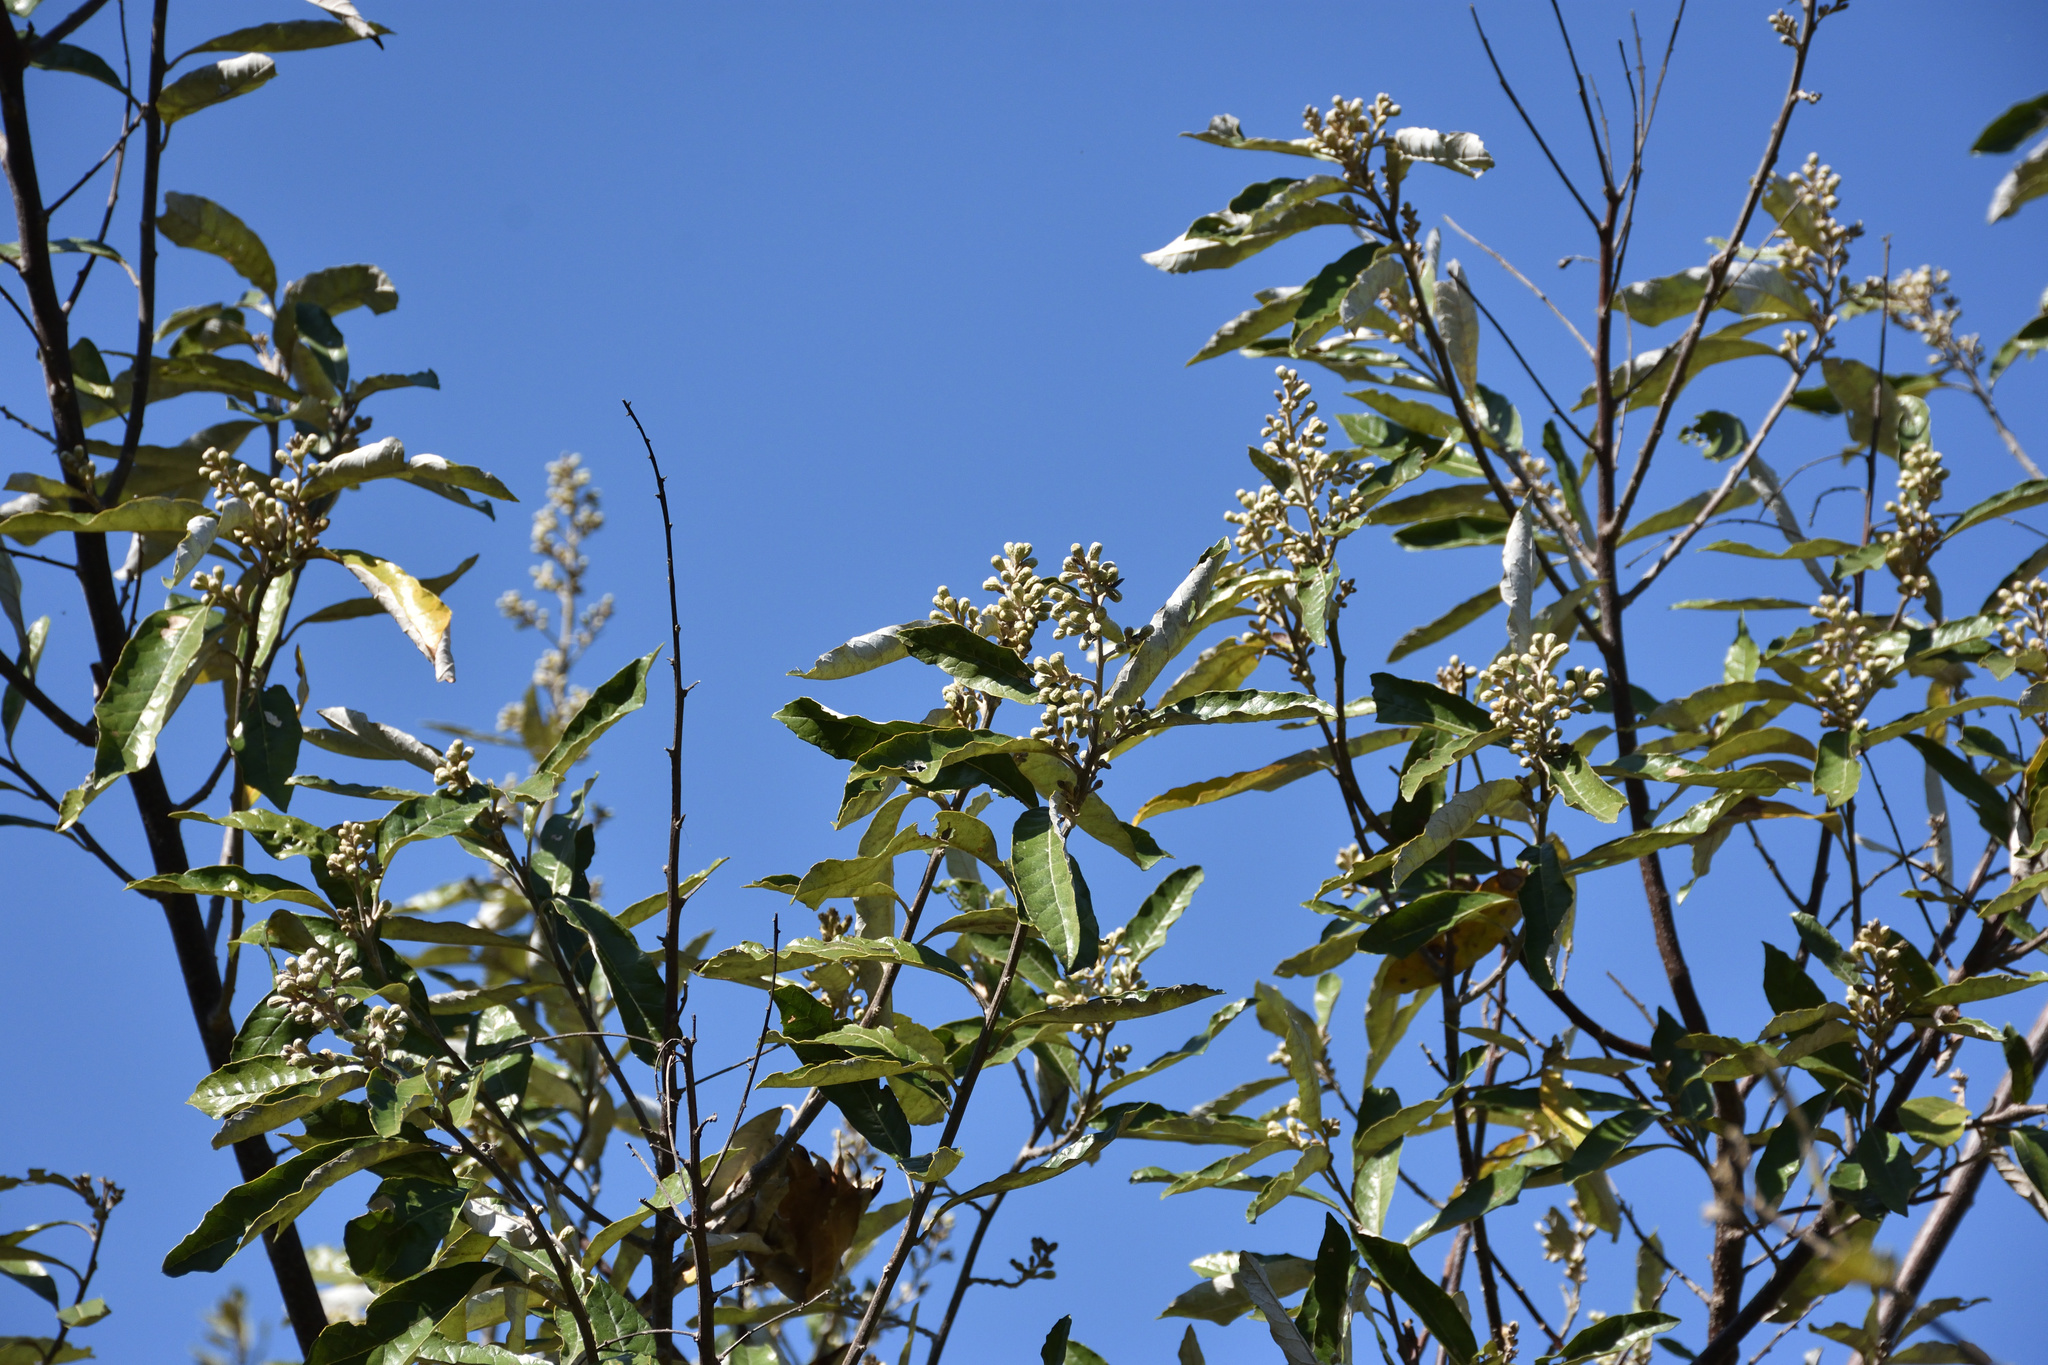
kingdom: Plantae
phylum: Tracheophyta
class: Magnoliopsida
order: Asterales
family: Asteraceae
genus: Brachylaena
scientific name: Brachylaena discolor
